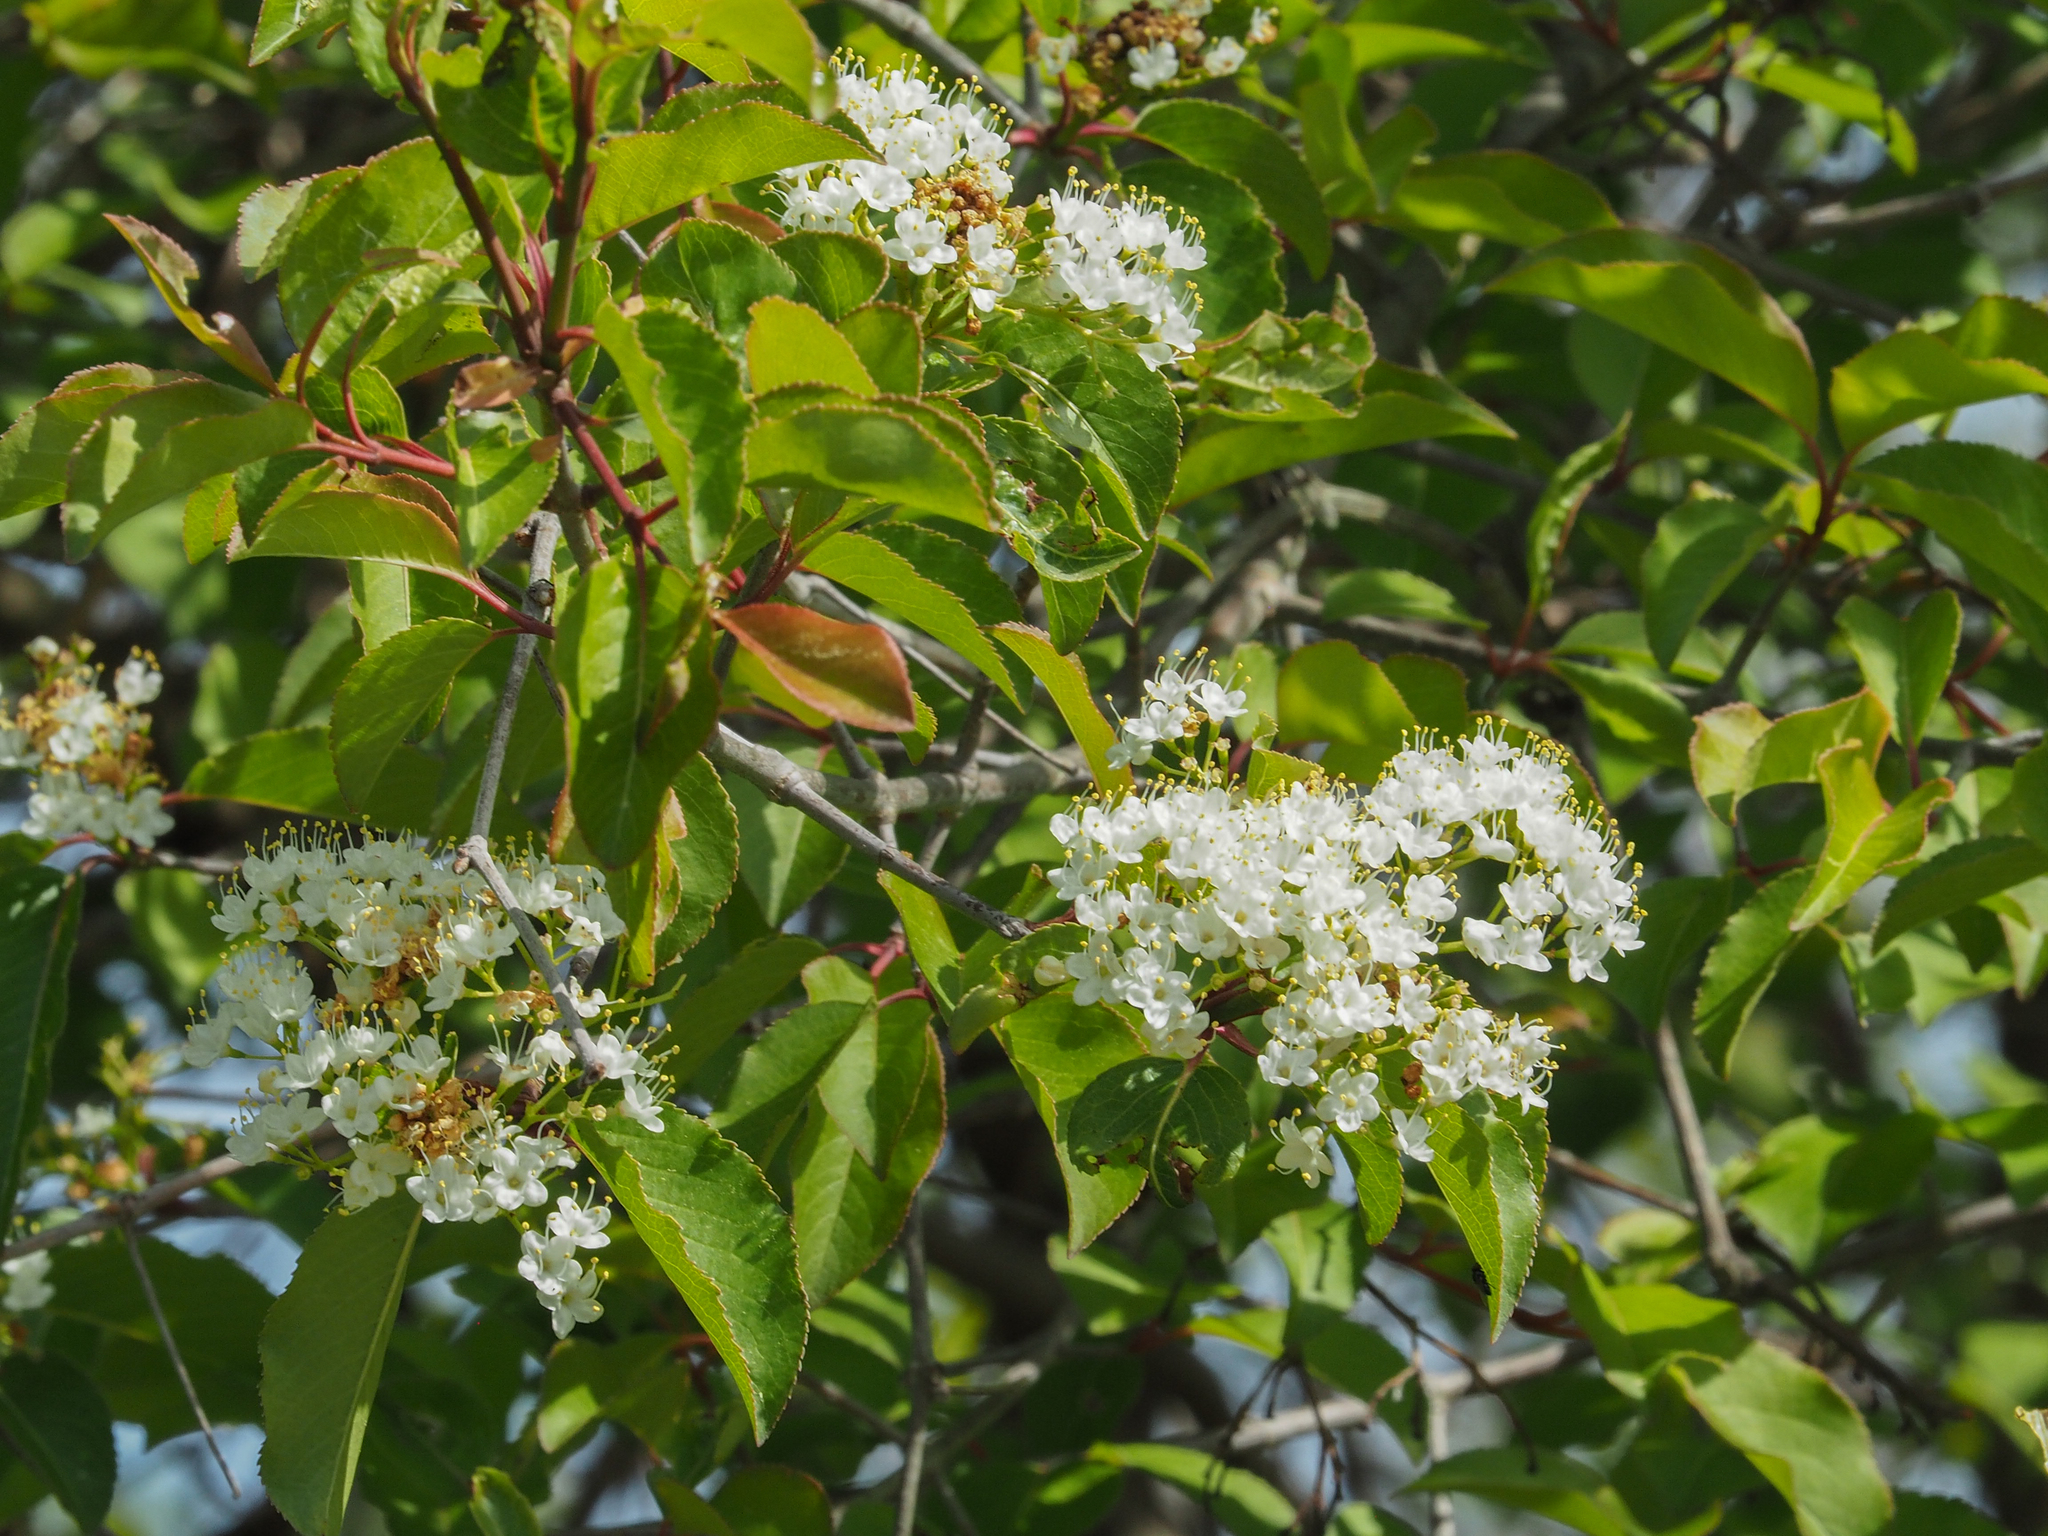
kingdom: Plantae
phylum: Tracheophyta
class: Magnoliopsida
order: Dipsacales
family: Viburnaceae
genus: Viburnum
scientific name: Viburnum prunifolium
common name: Black haw
